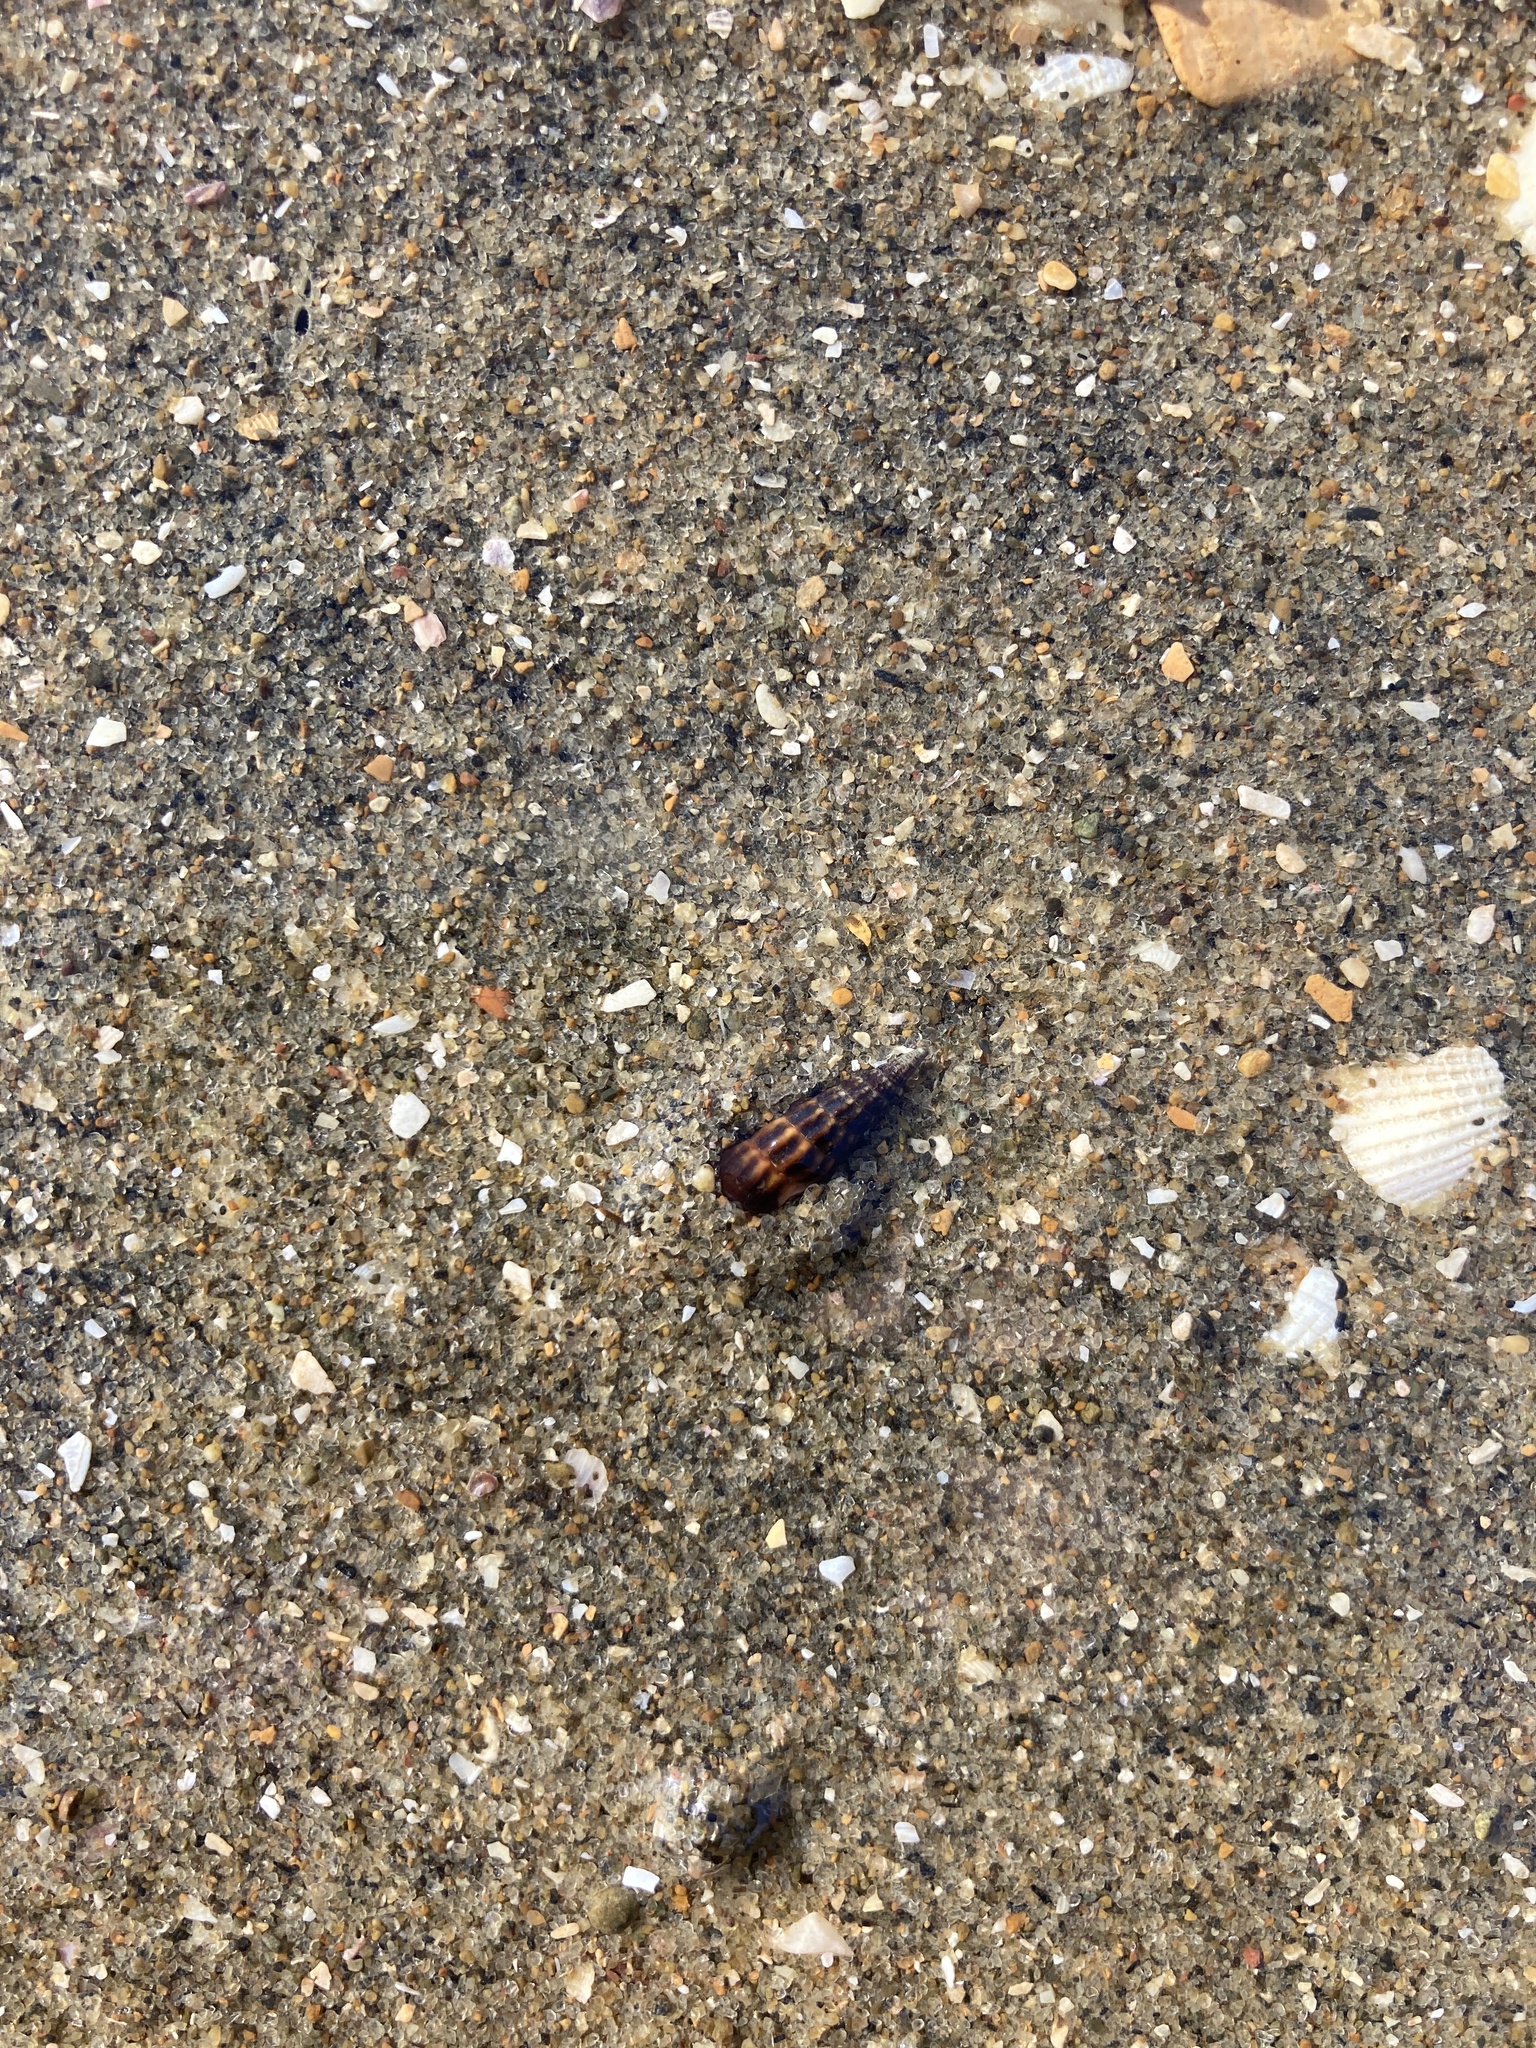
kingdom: Animalia
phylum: Mollusca
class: Gastropoda
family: Batillariidae
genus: Zeacumantus
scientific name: Zeacumantus subcarinatus
